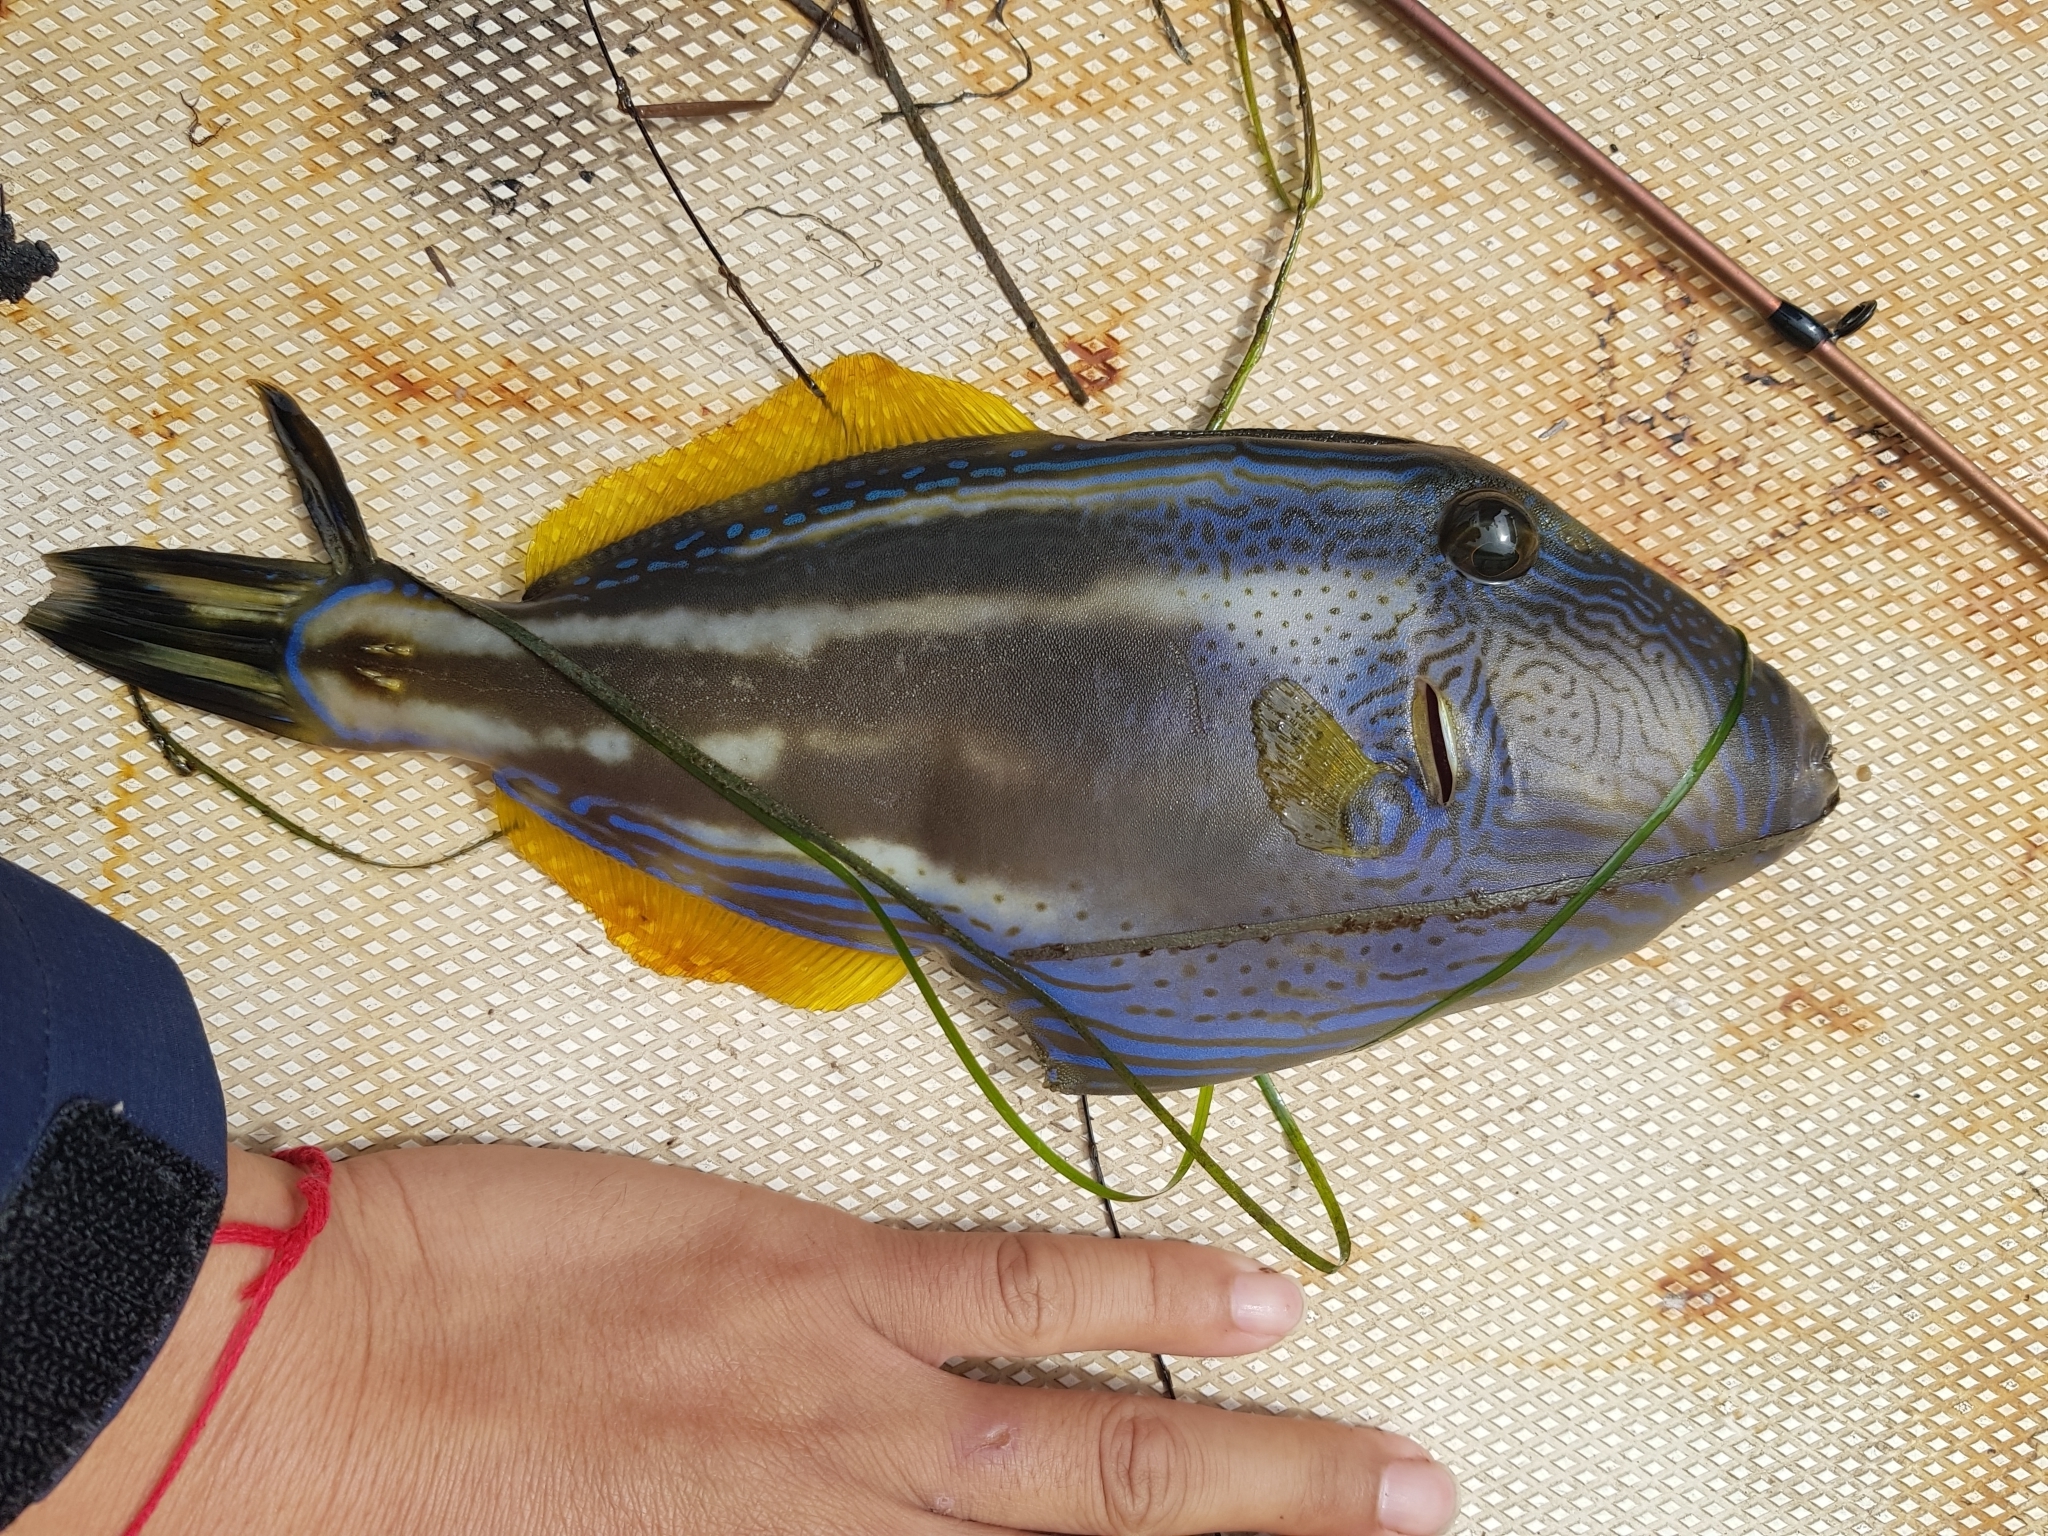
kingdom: Animalia
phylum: Chordata
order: Tetraodontiformes
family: Monacanthidae
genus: Meuschenia
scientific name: Meuschenia freycineti
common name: Freycinet's leatherjacket
